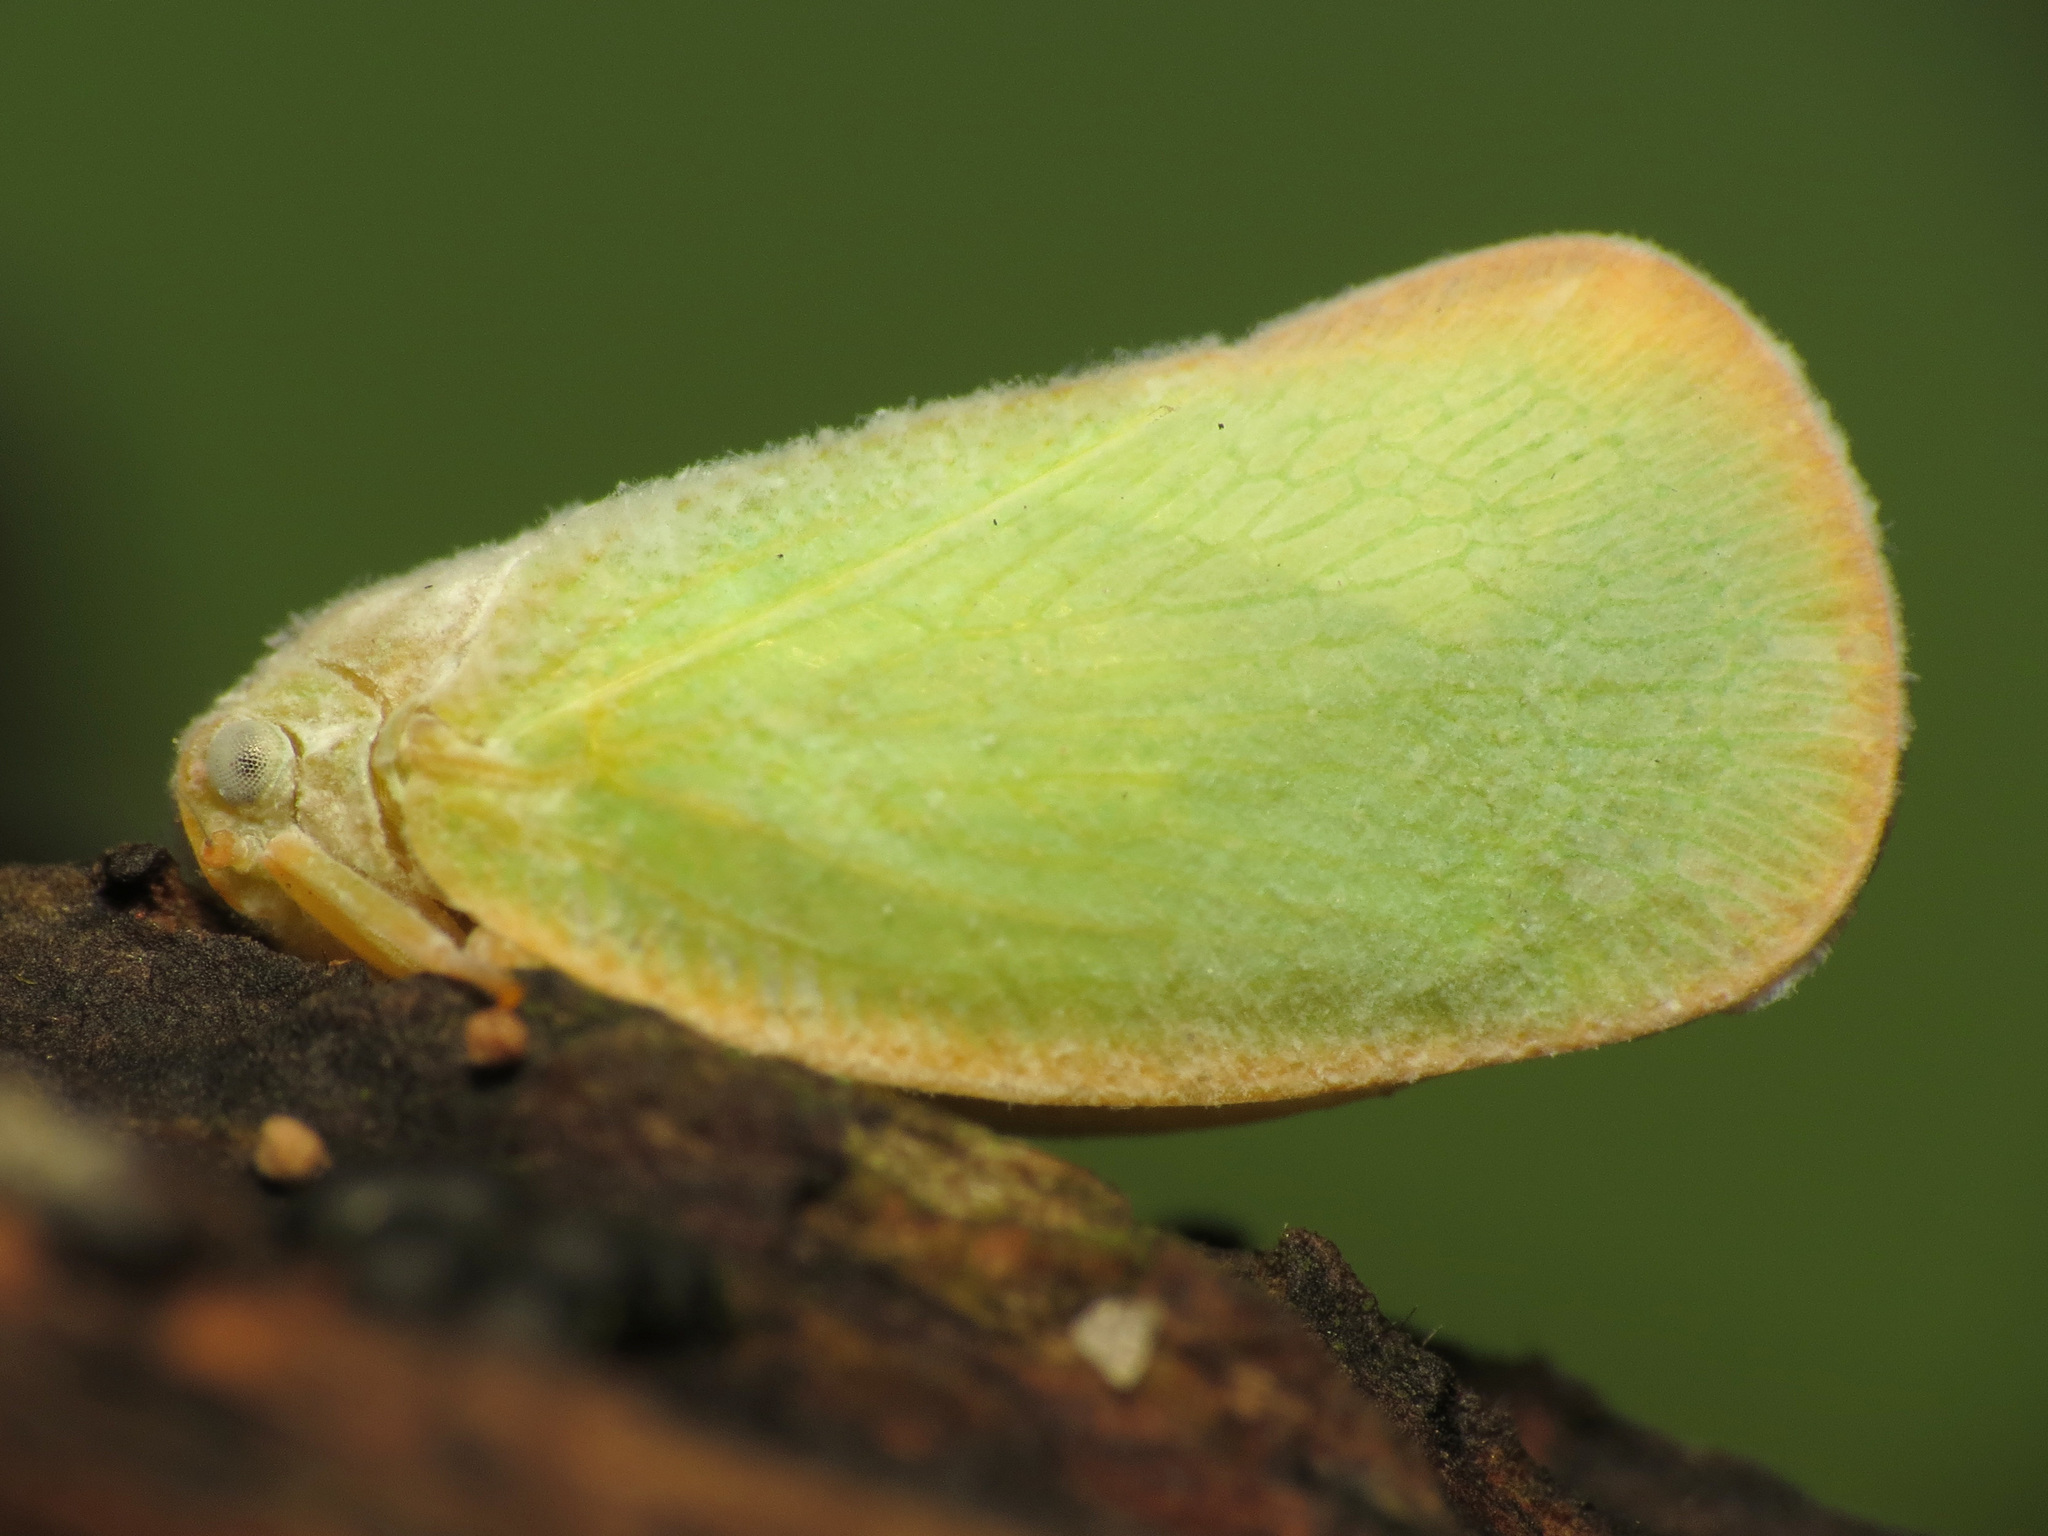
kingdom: Animalia
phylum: Arthropoda
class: Insecta
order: Hemiptera
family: Flatidae
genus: Ormenoides
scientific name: Ormenoides venusta
